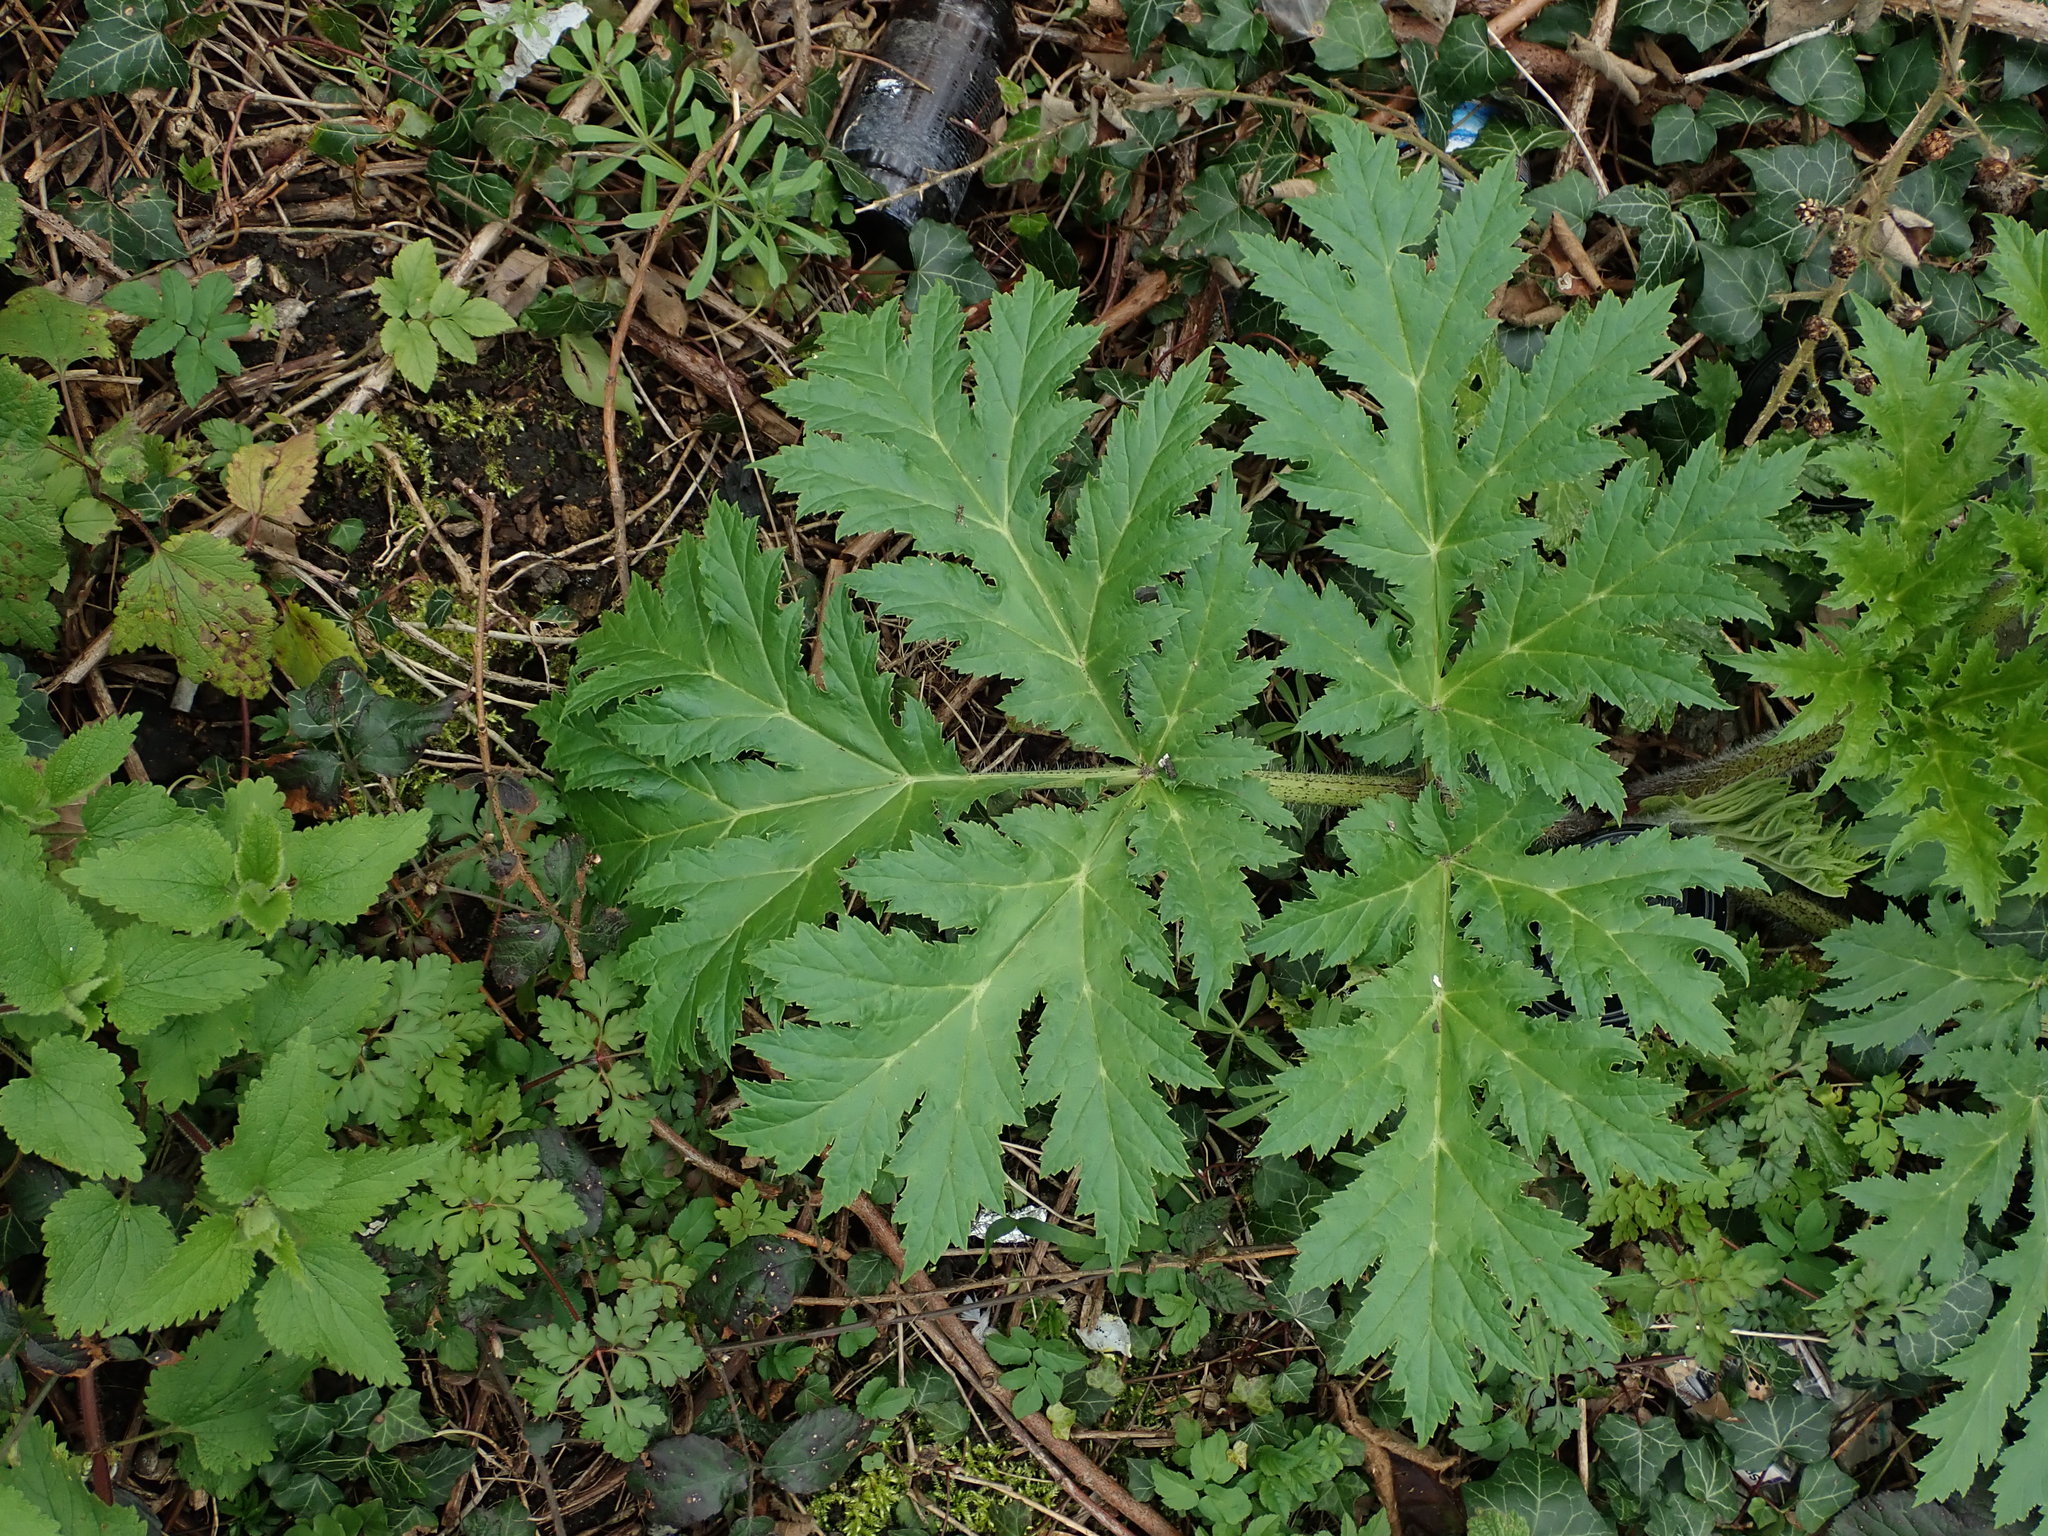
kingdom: Plantae
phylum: Tracheophyta
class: Magnoliopsida
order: Apiales
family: Apiaceae
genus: Heracleum
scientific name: Heracleum mantegazzianum
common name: Giant hogweed
